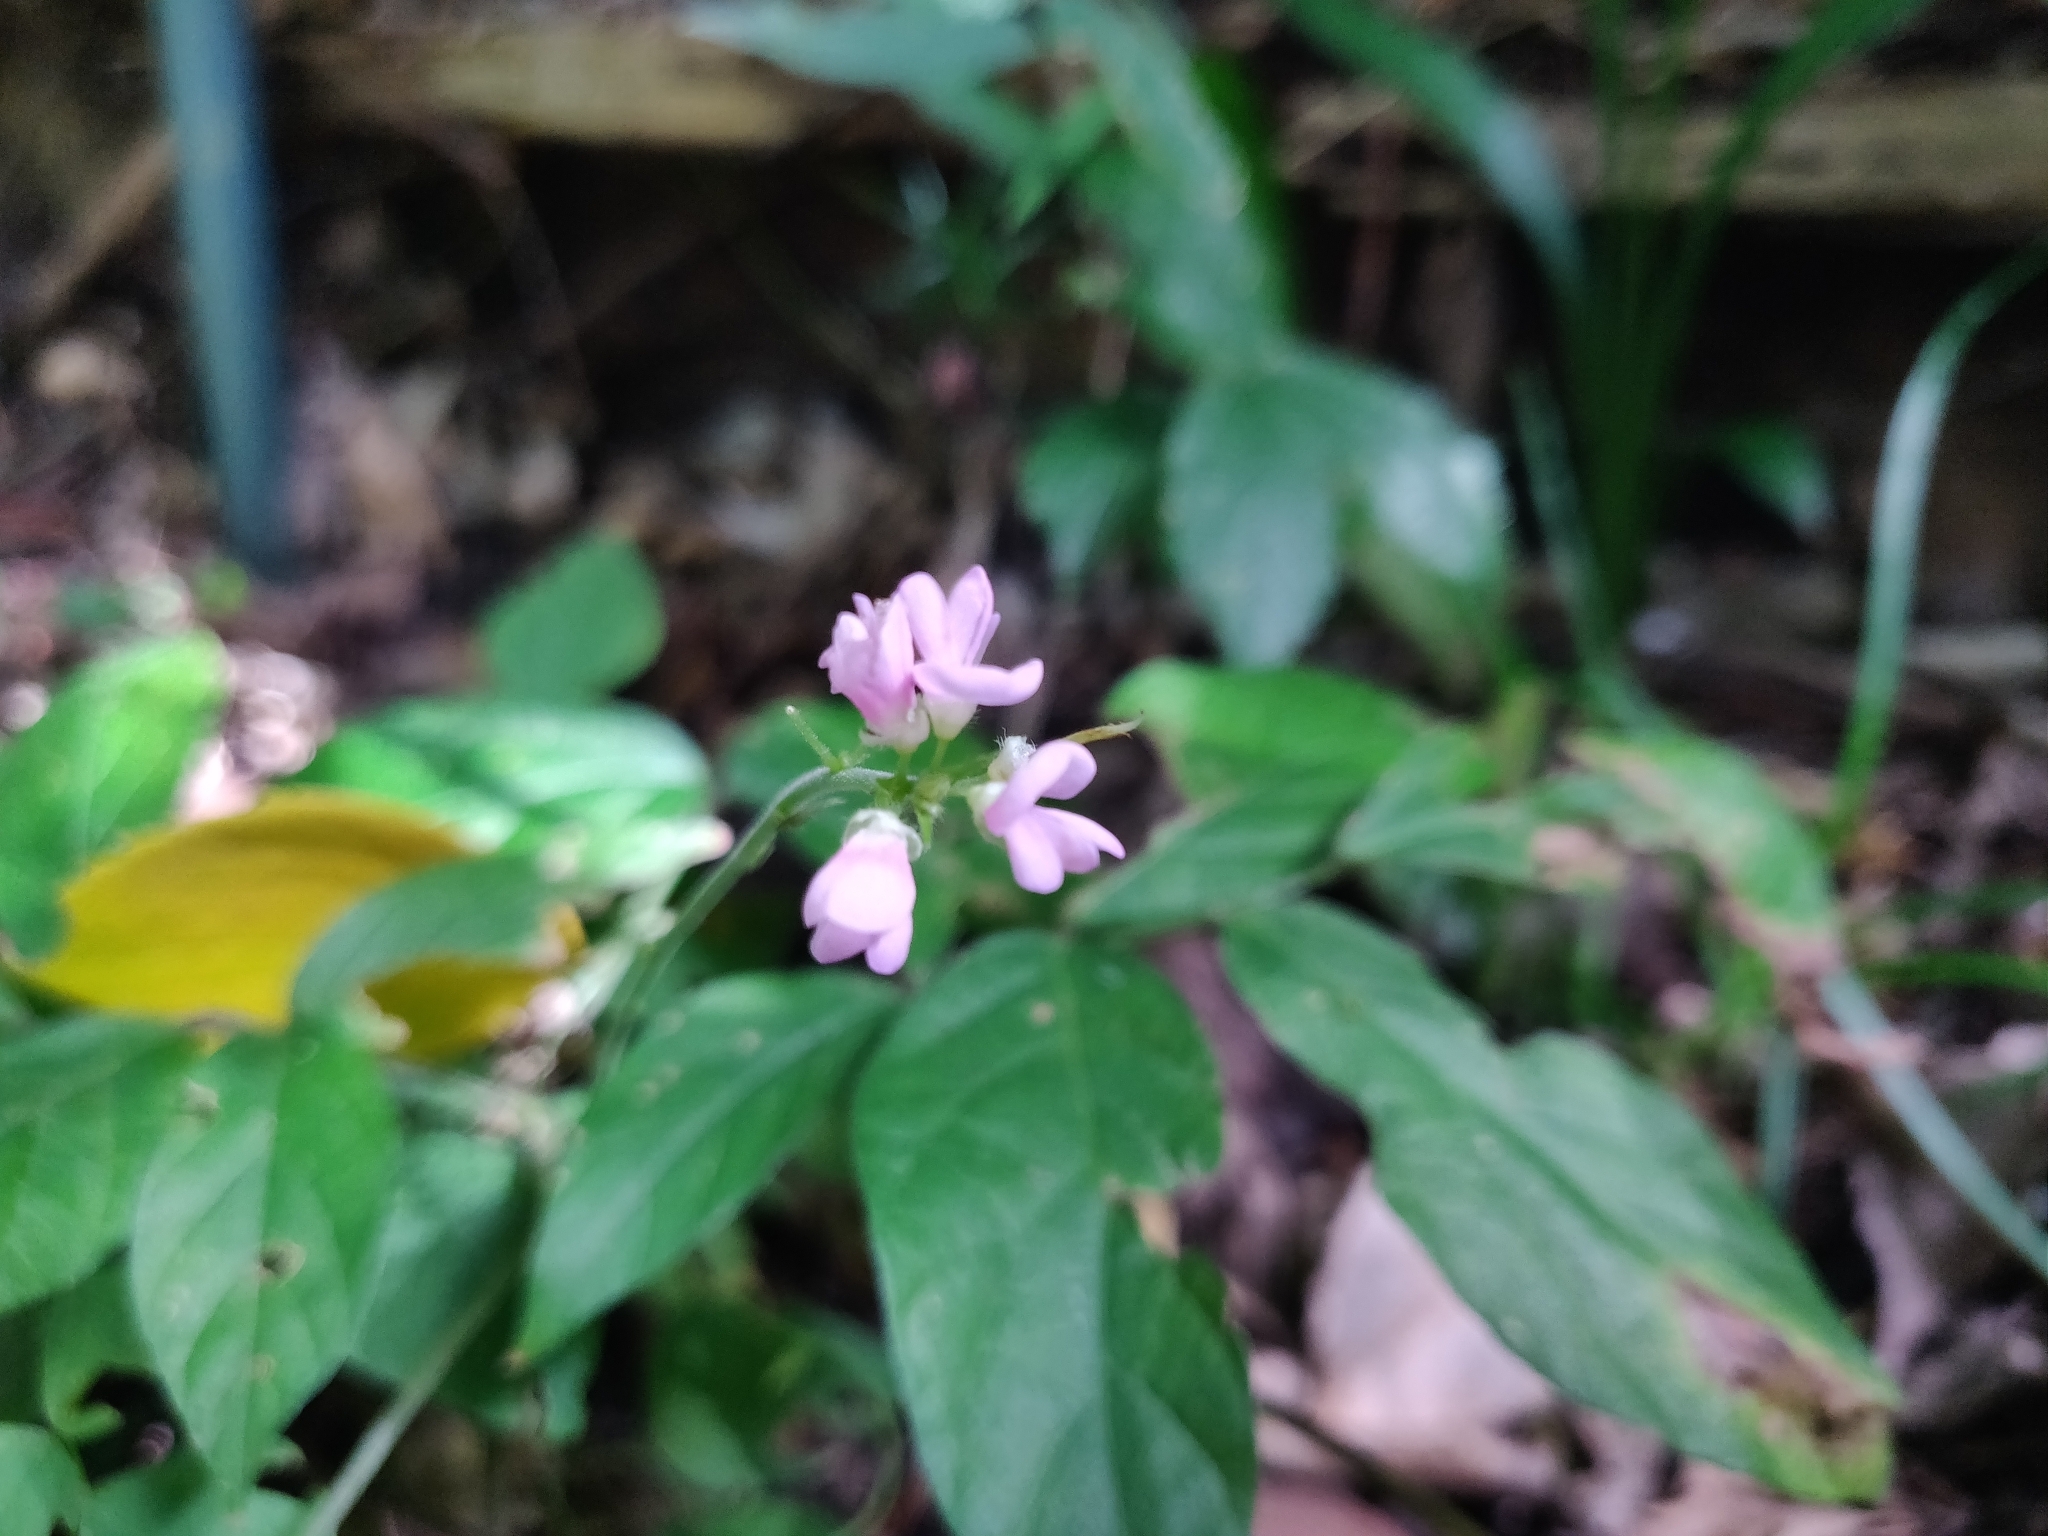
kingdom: Plantae
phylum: Tracheophyta
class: Magnoliopsida
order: Fabales
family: Fabaceae
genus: Hylodesmum
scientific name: Hylodesmum oldhamii
